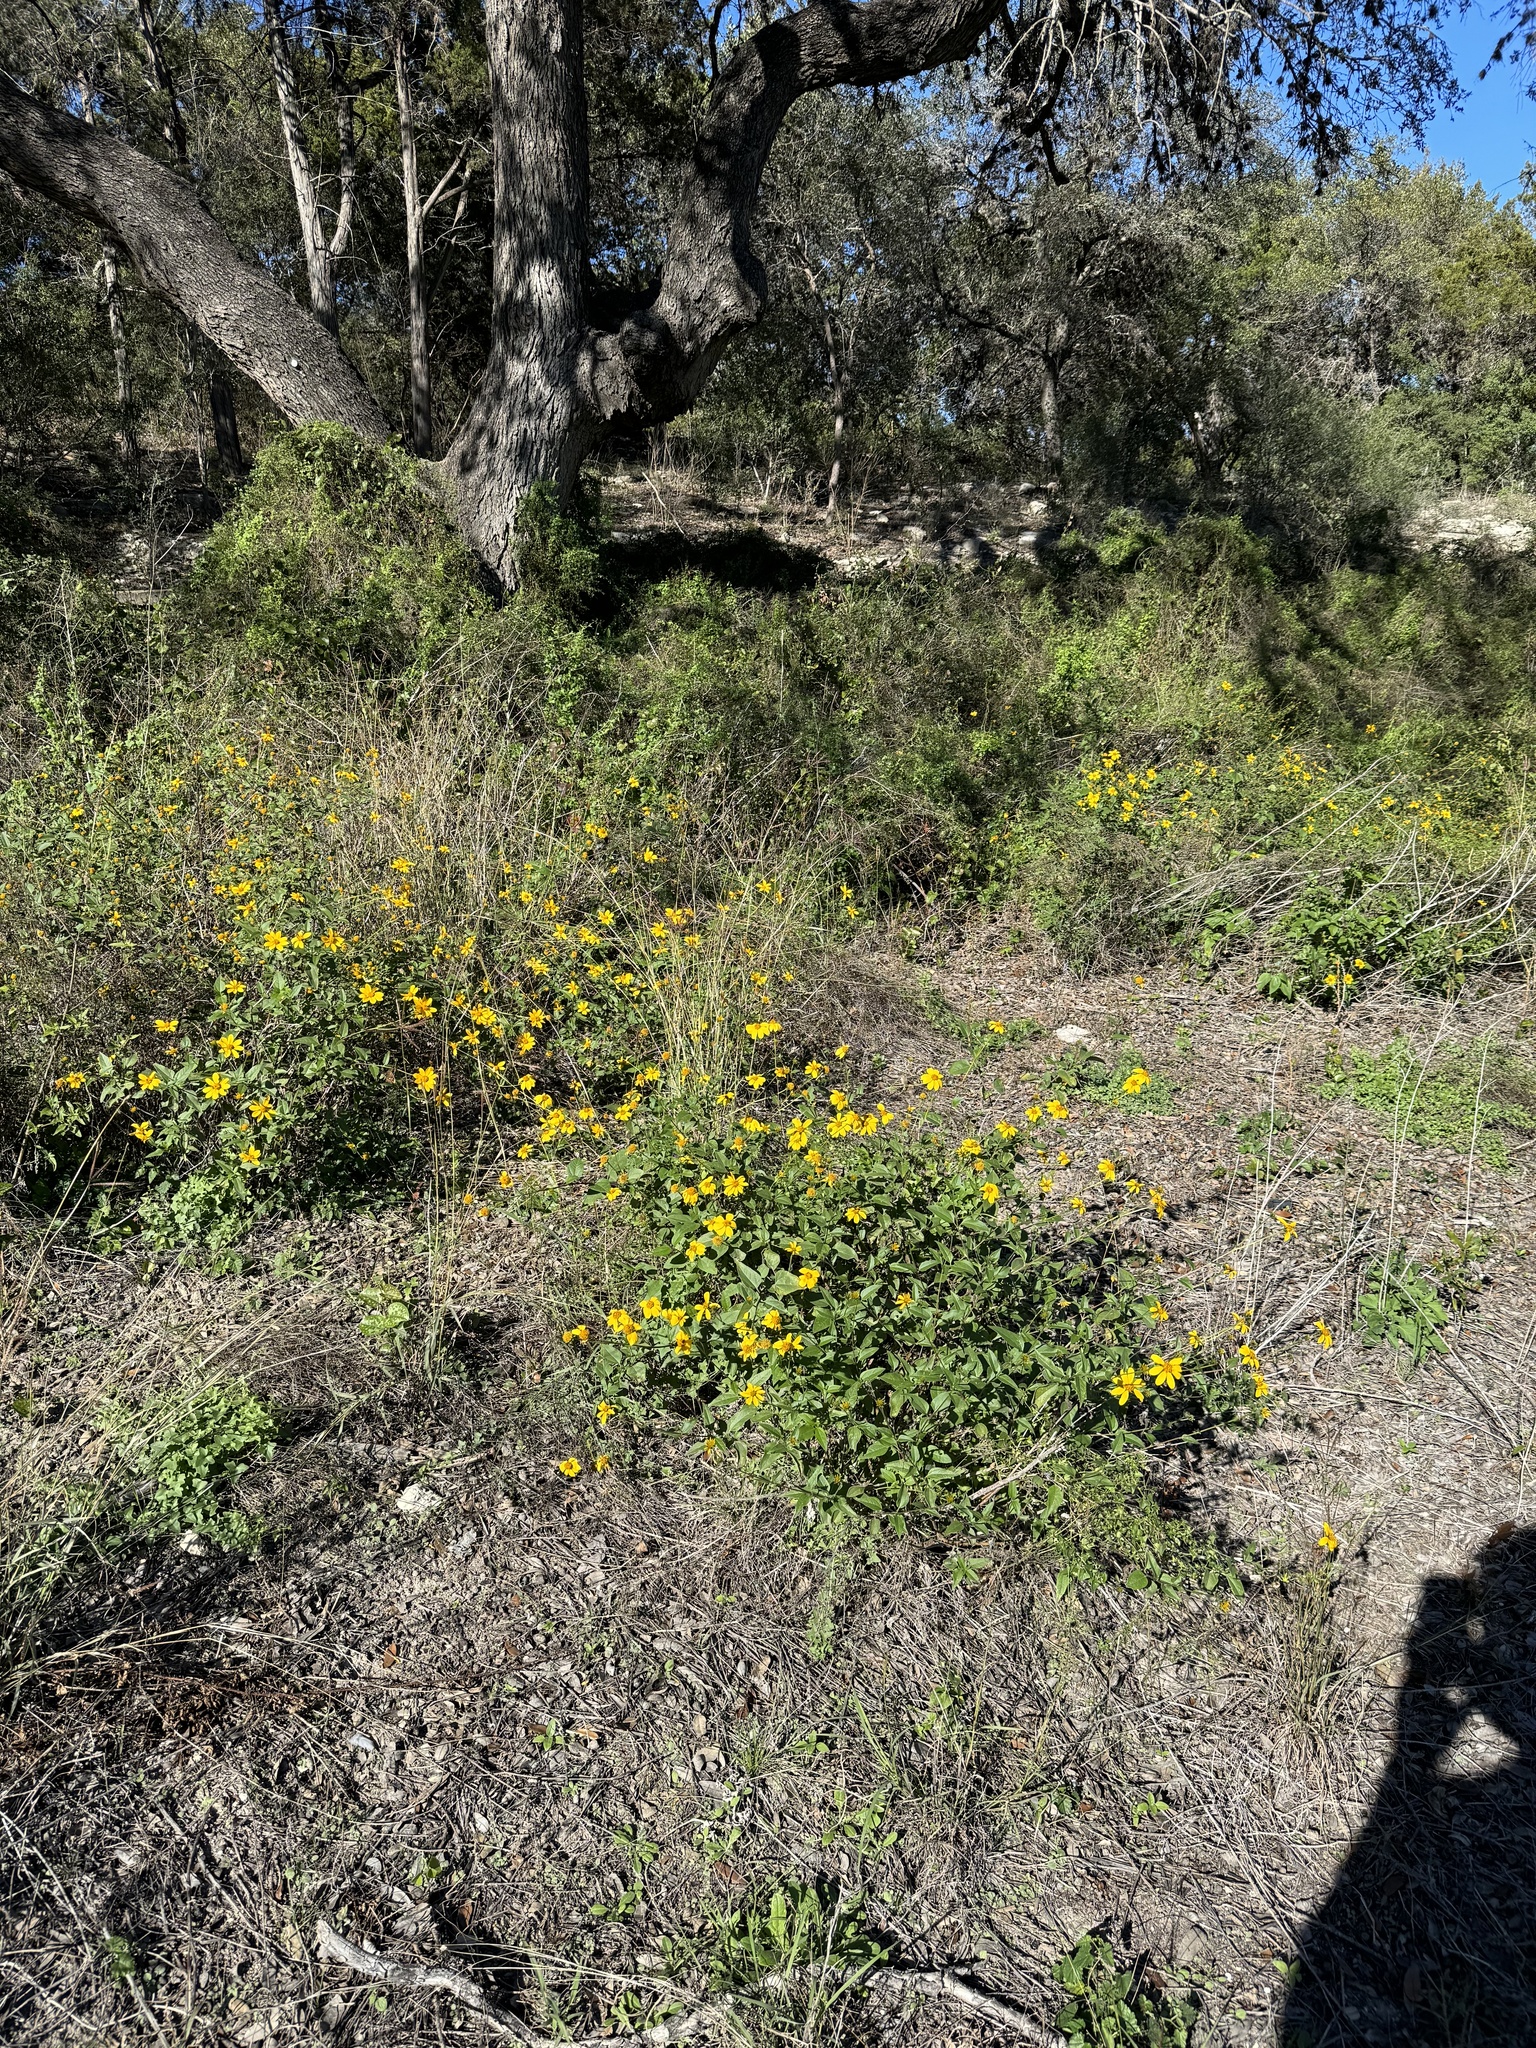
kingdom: Plantae
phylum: Tracheophyta
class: Magnoliopsida
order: Asterales
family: Asteraceae
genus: Viguiera
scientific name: Viguiera dentata
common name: Toothleaf
